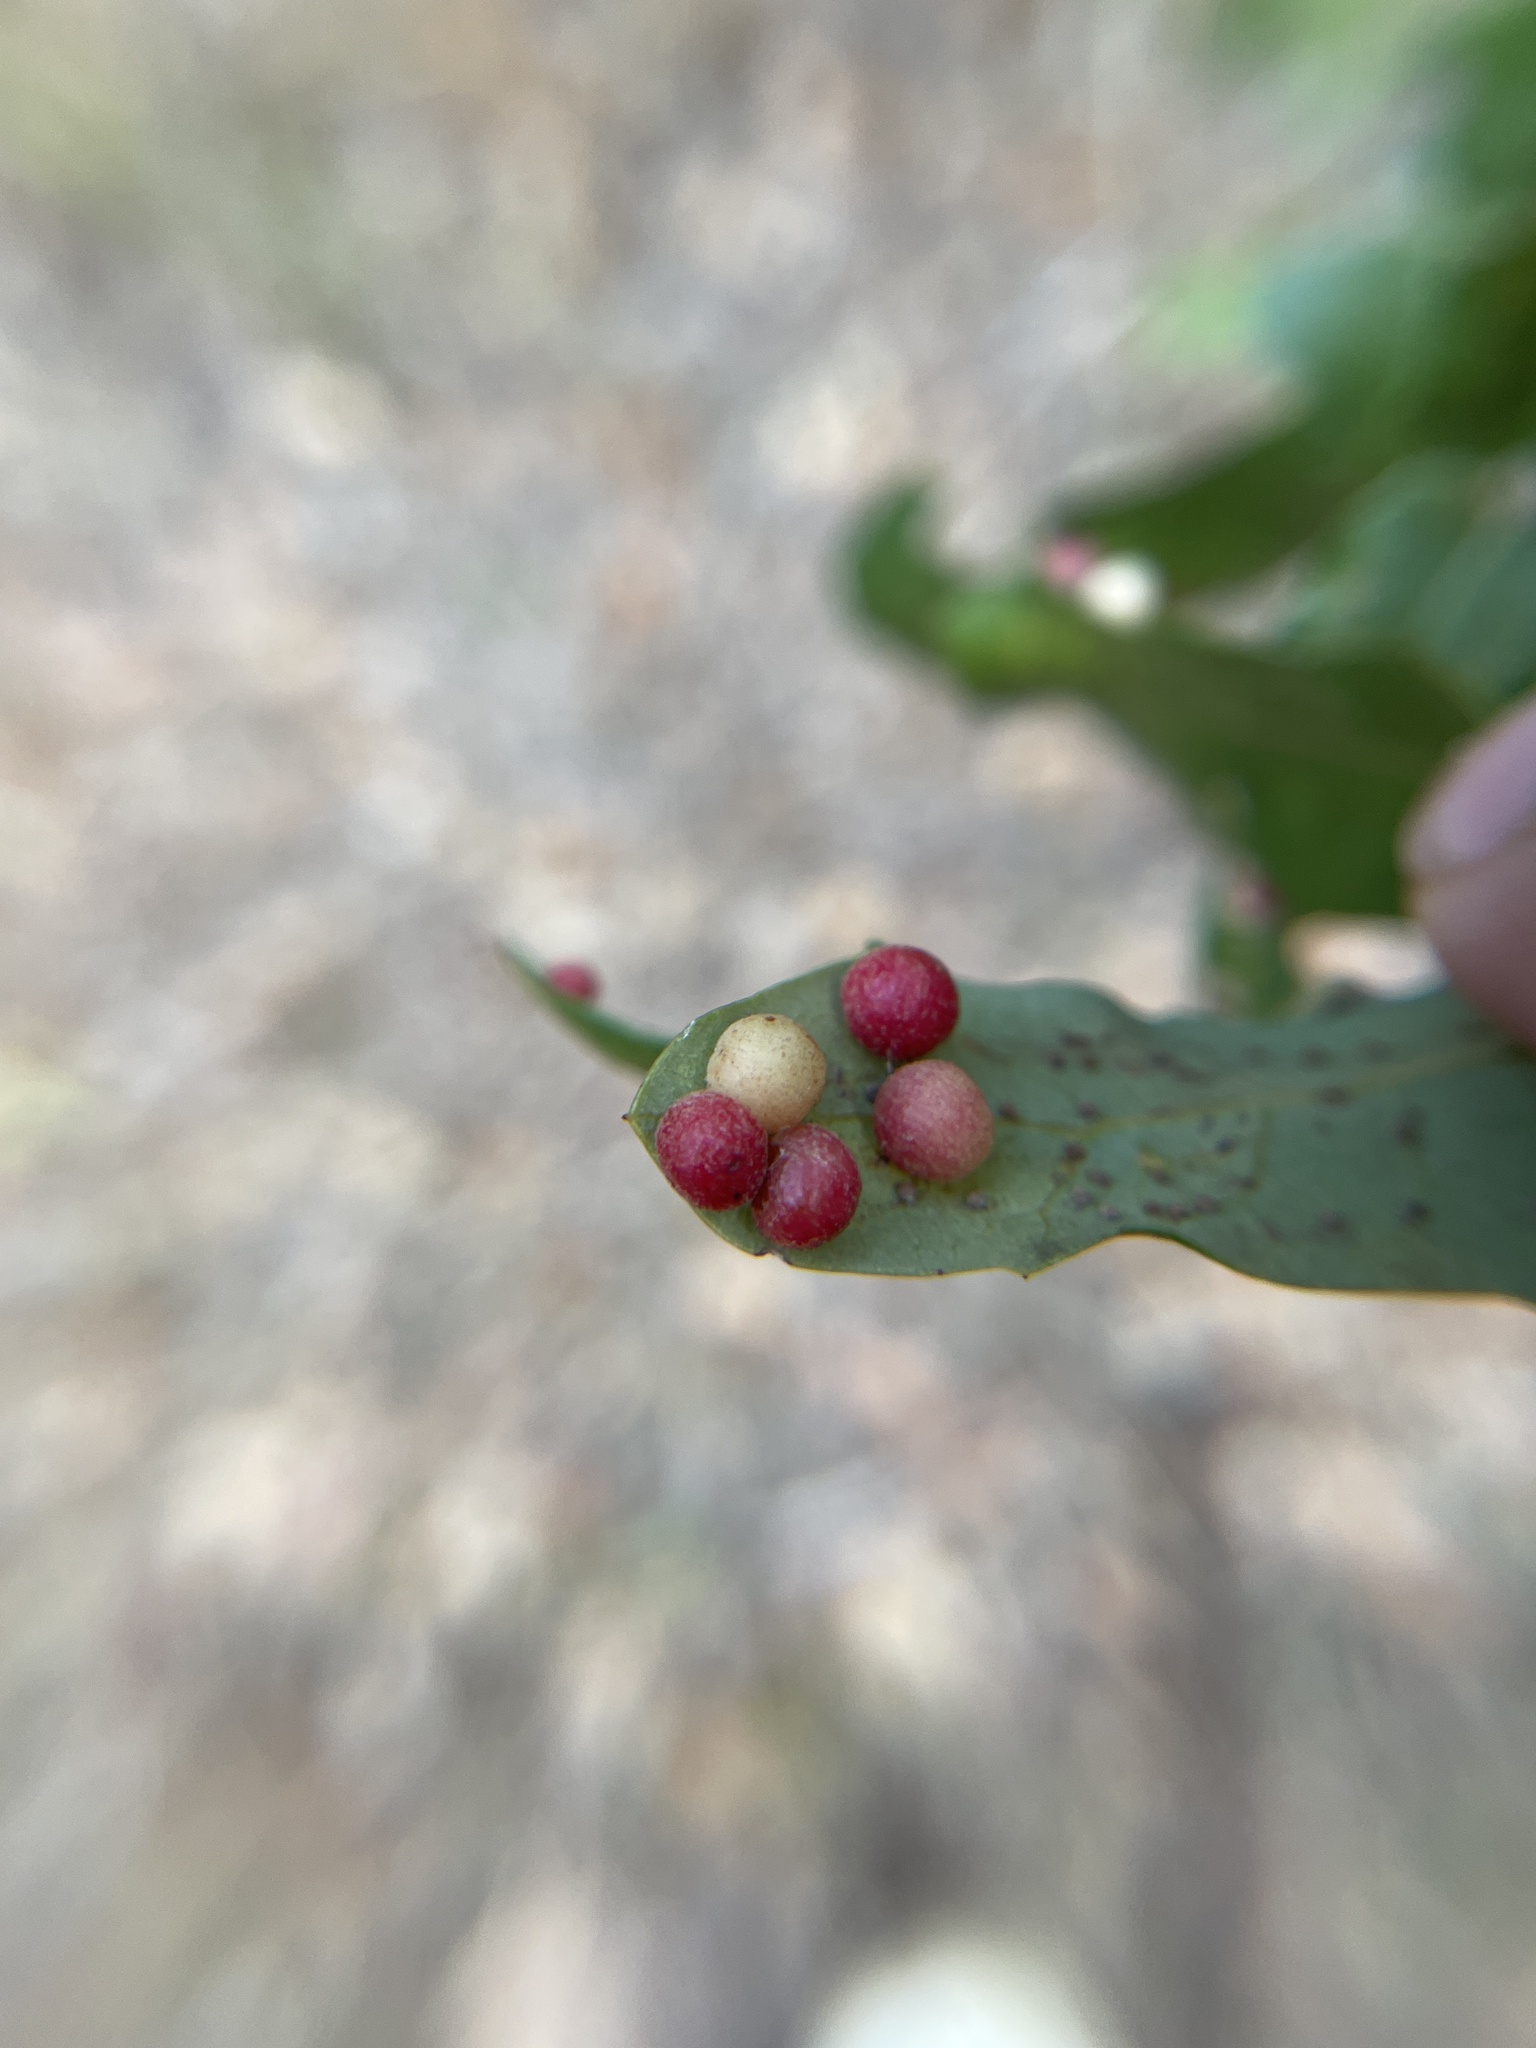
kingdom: Animalia
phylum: Arthropoda
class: Insecta
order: Hymenoptera
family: Cynipidae
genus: Belonocnema
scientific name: Belonocnema kinseyi
